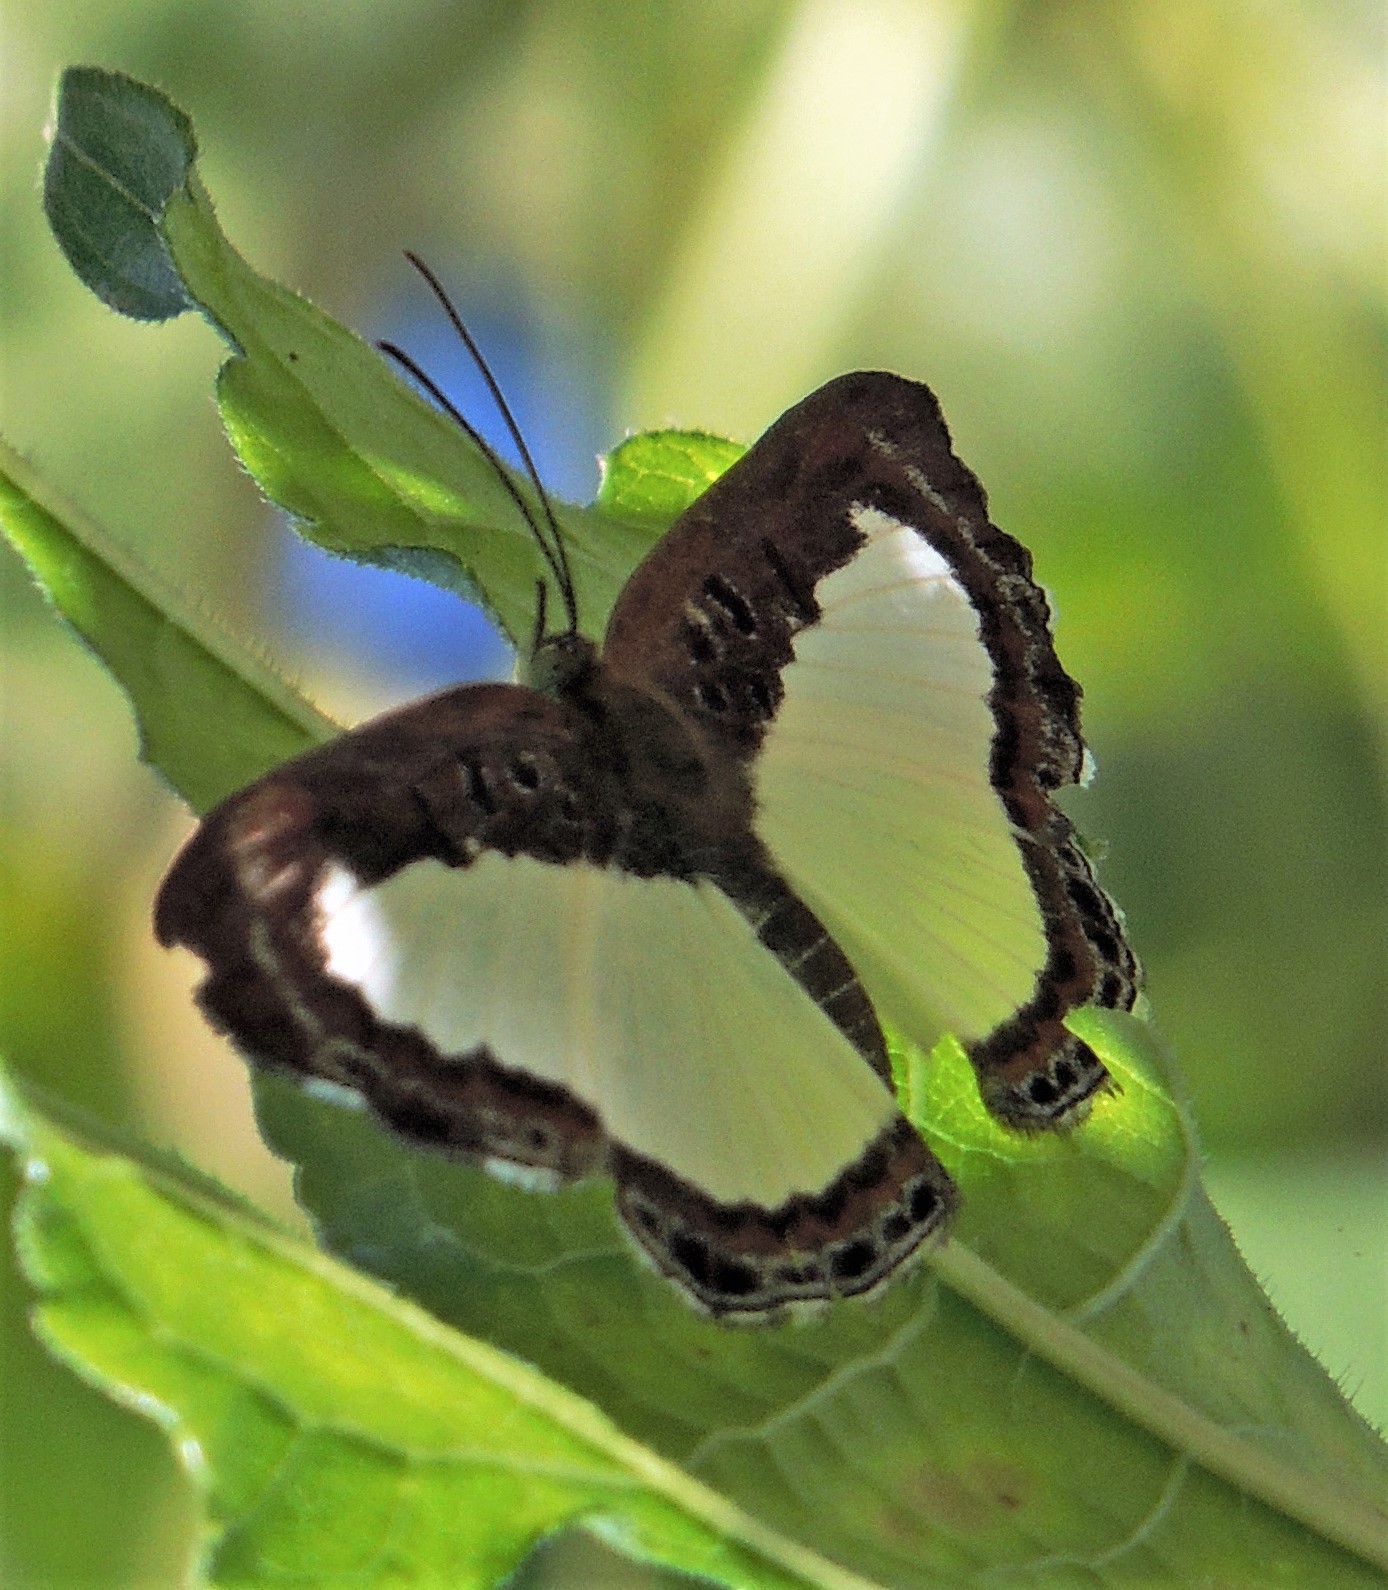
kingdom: Animalia
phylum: Arthropoda
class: Insecta
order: Lepidoptera
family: Riodinidae
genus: Nymula
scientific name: Nymula calyce
